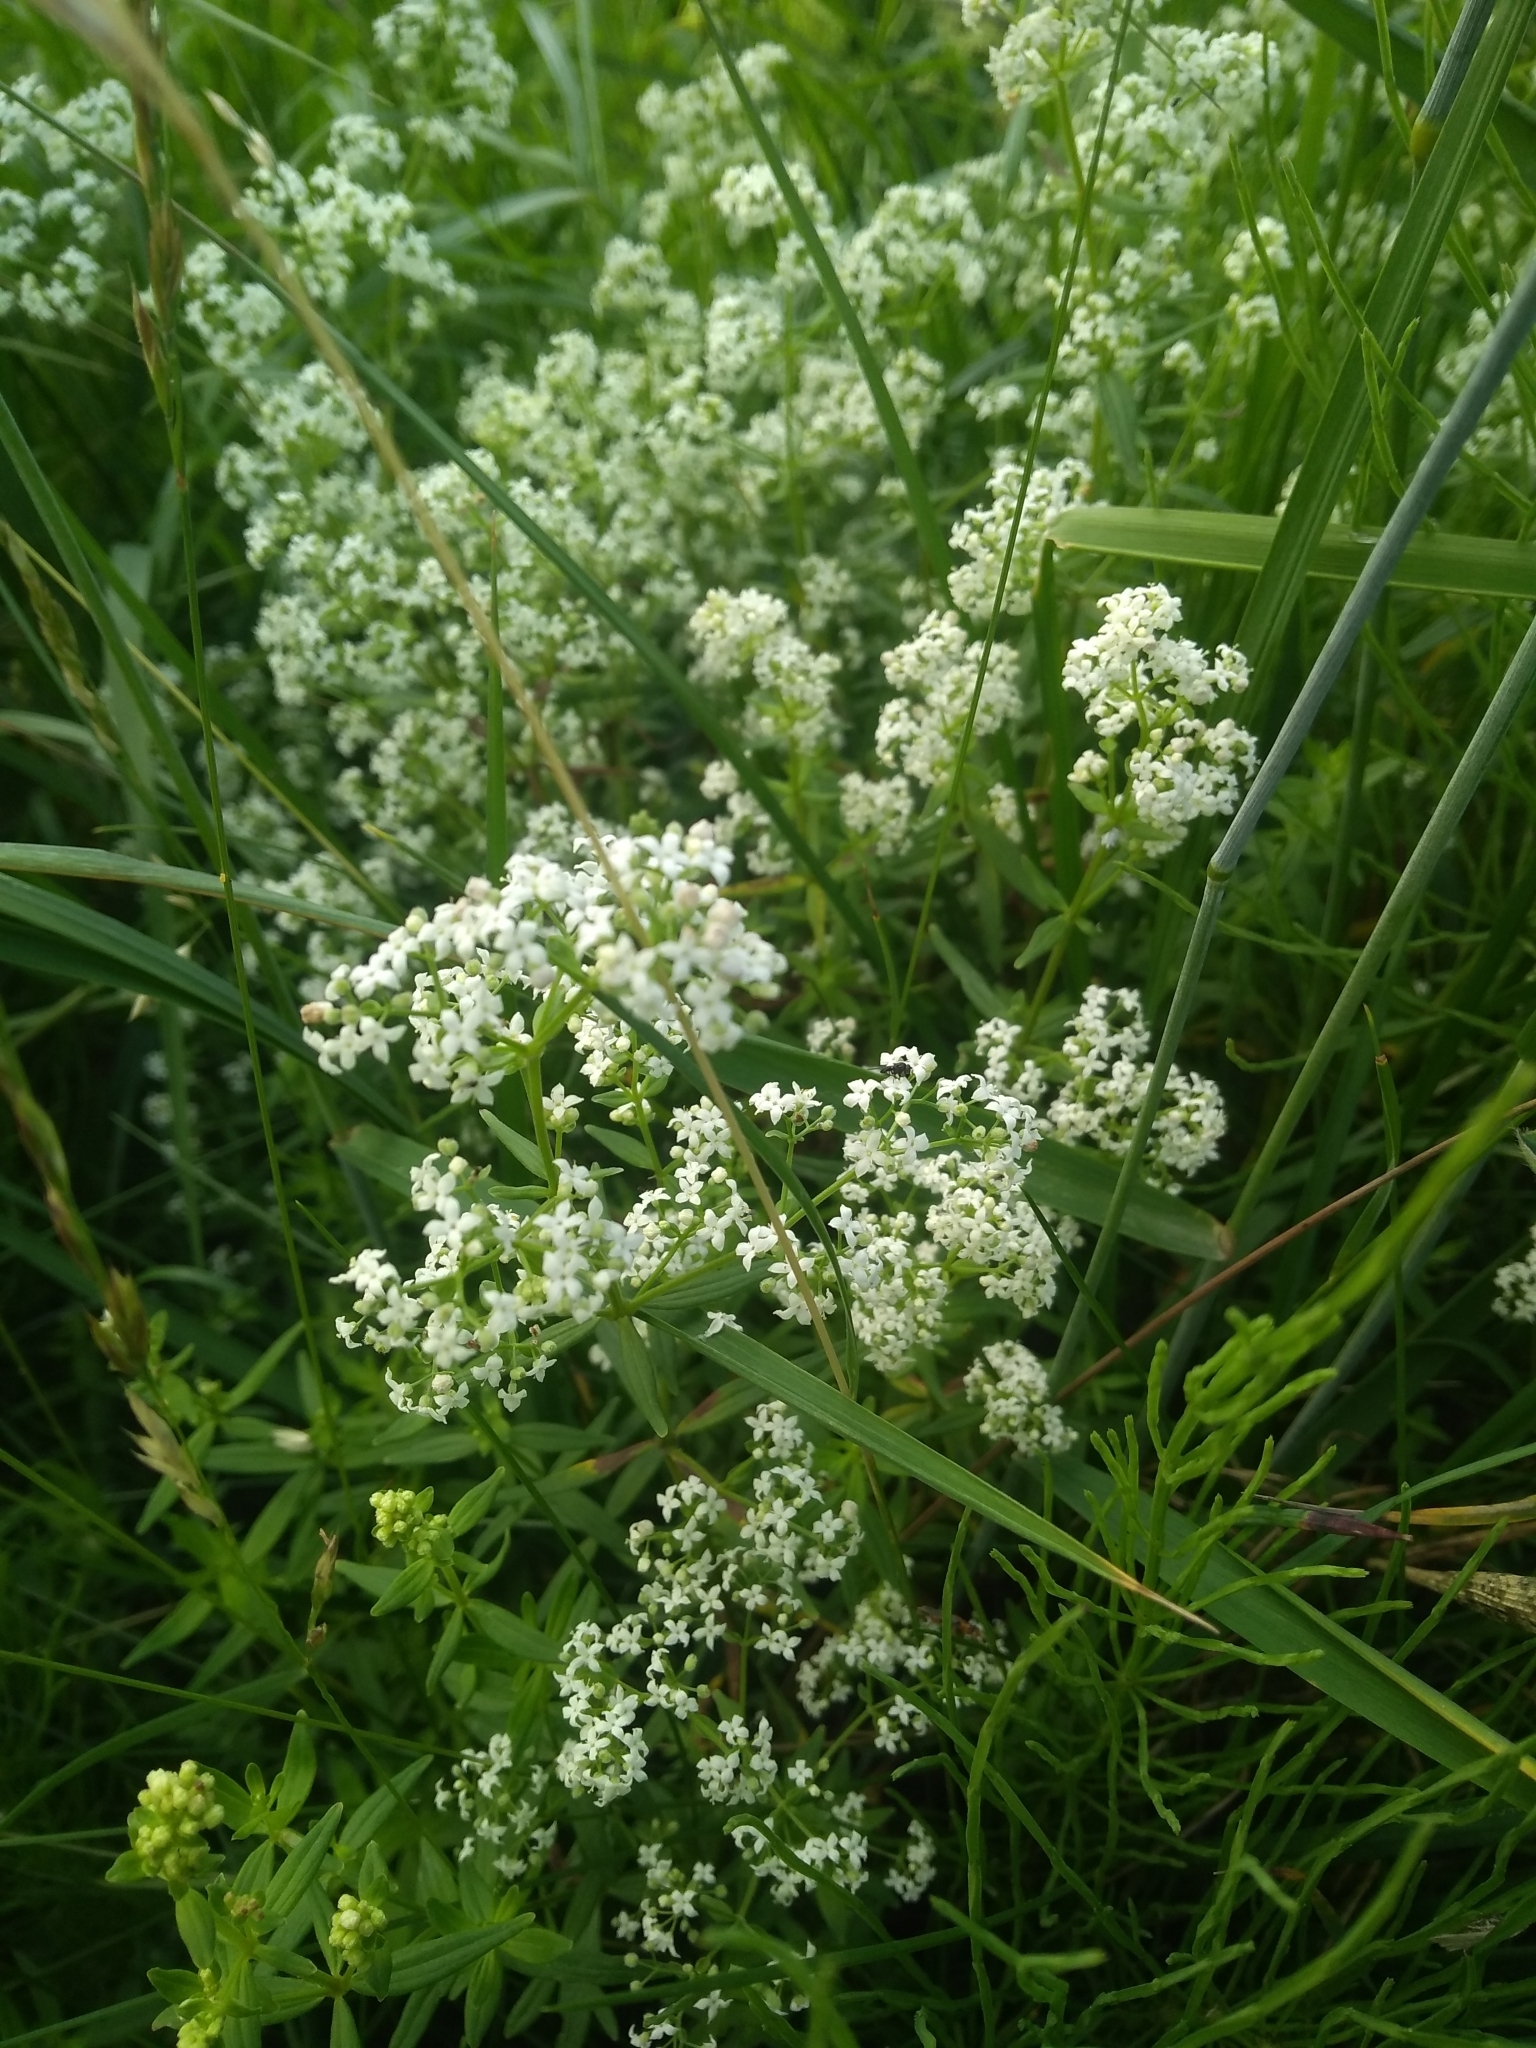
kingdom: Plantae
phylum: Tracheophyta
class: Magnoliopsida
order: Gentianales
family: Rubiaceae
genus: Galium
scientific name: Galium boreale
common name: Northern bedstraw
